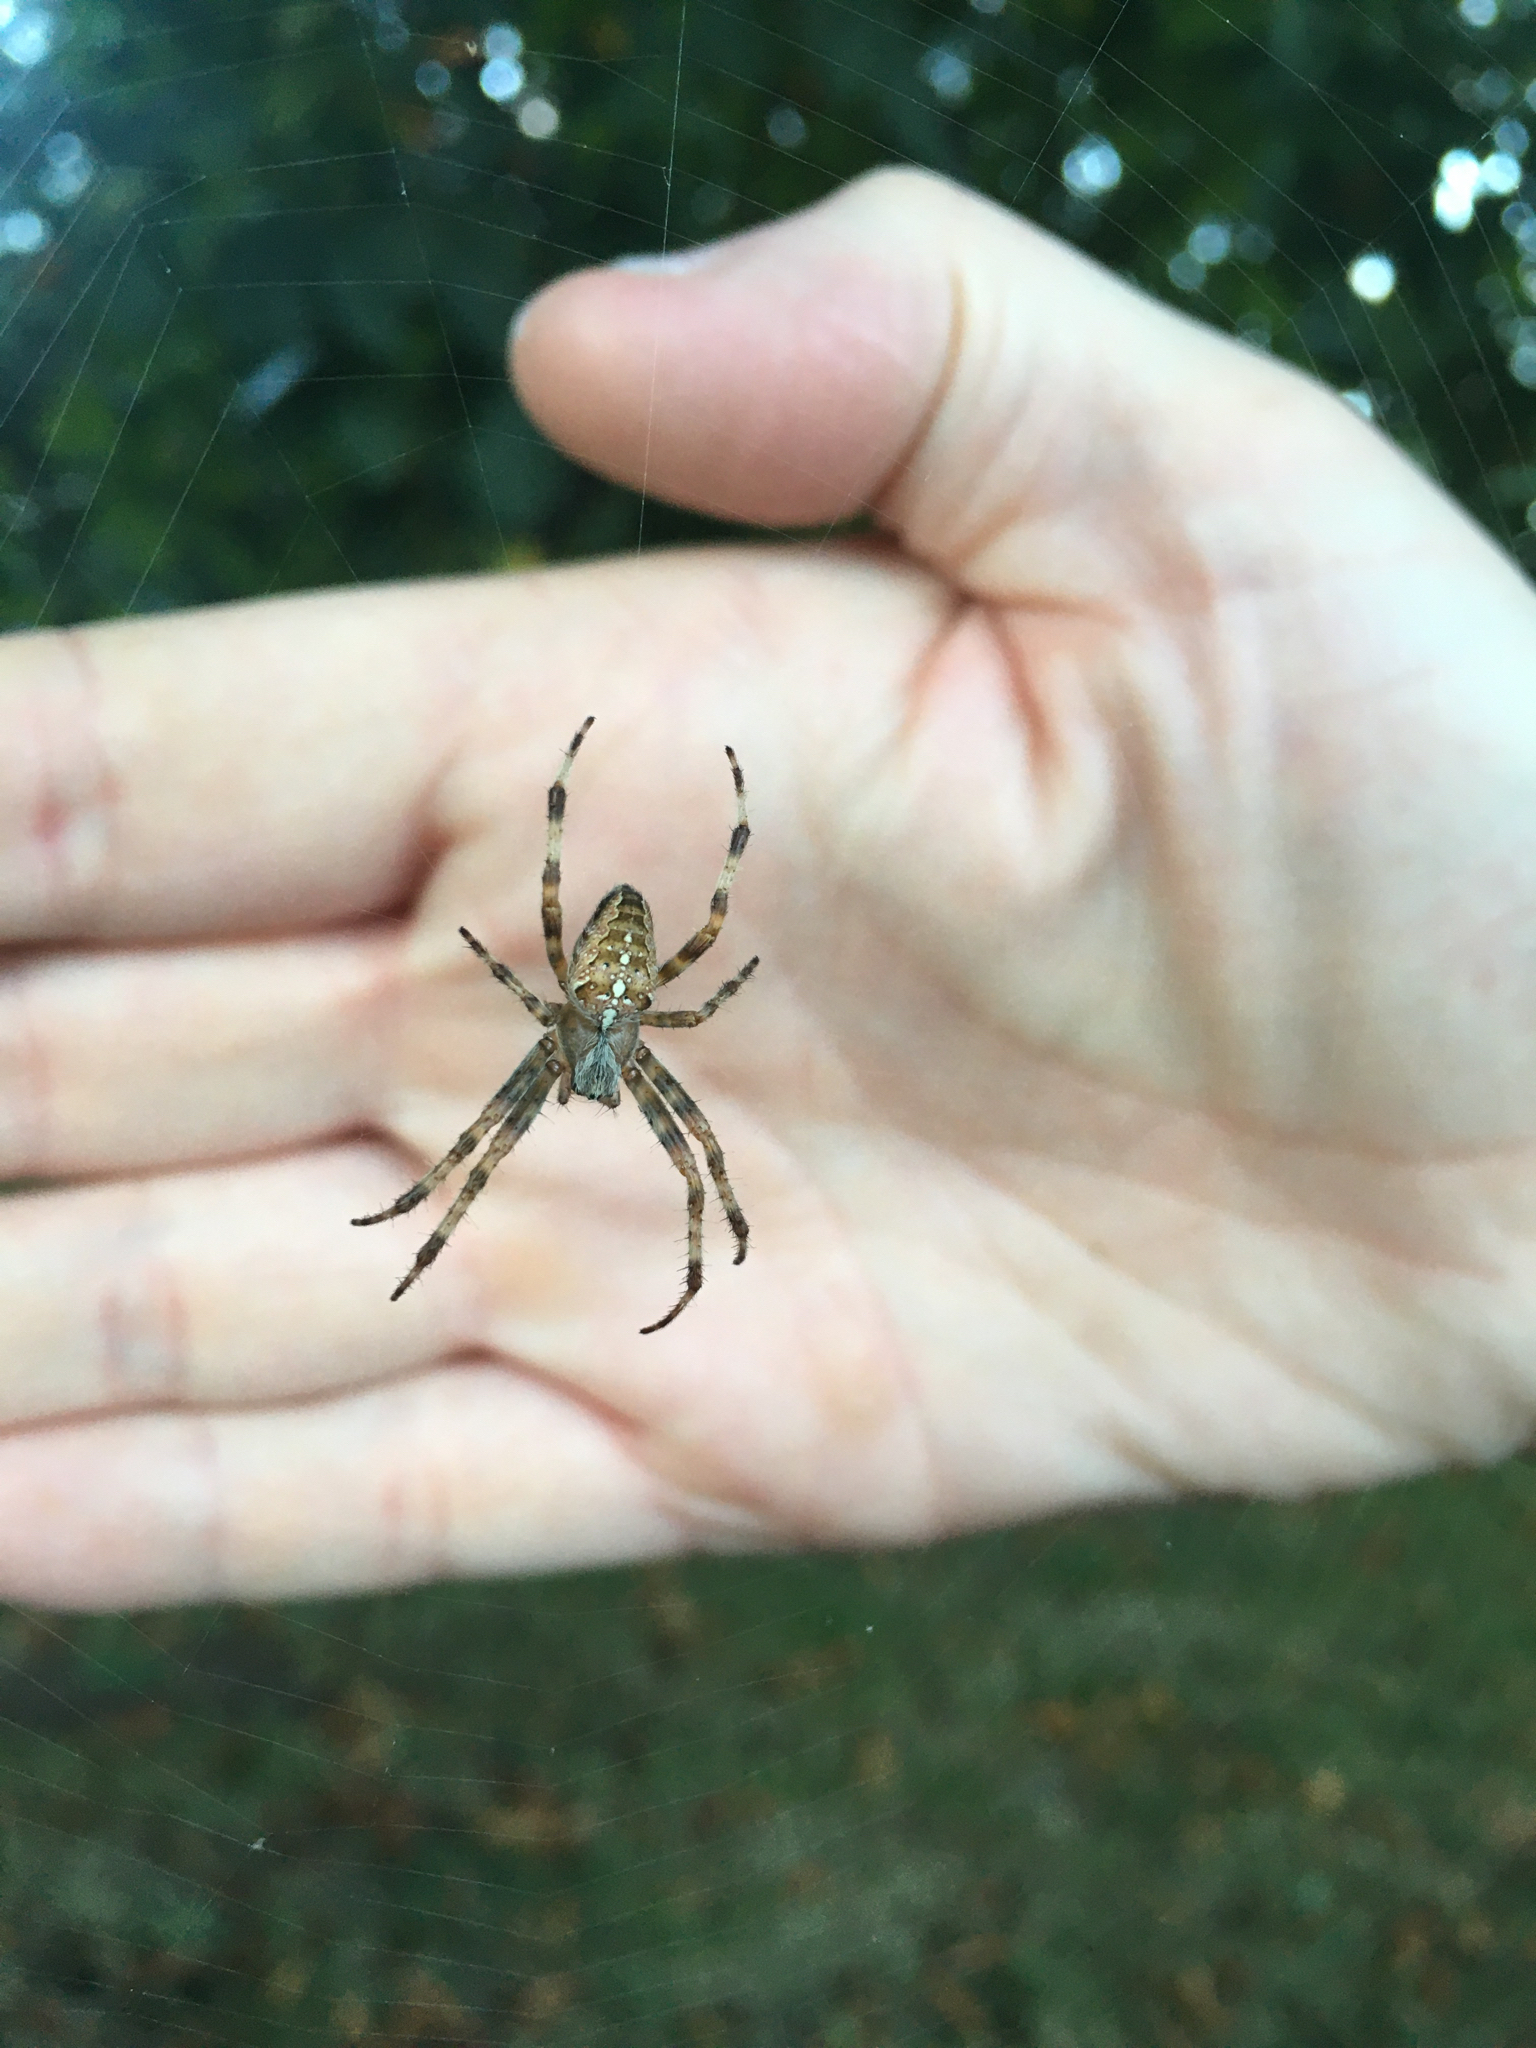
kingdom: Animalia
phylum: Arthropoda
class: Arachnida
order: Araneae
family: Araneidae
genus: Araneus
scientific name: Araneus diadematus
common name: Cross orbweaver
